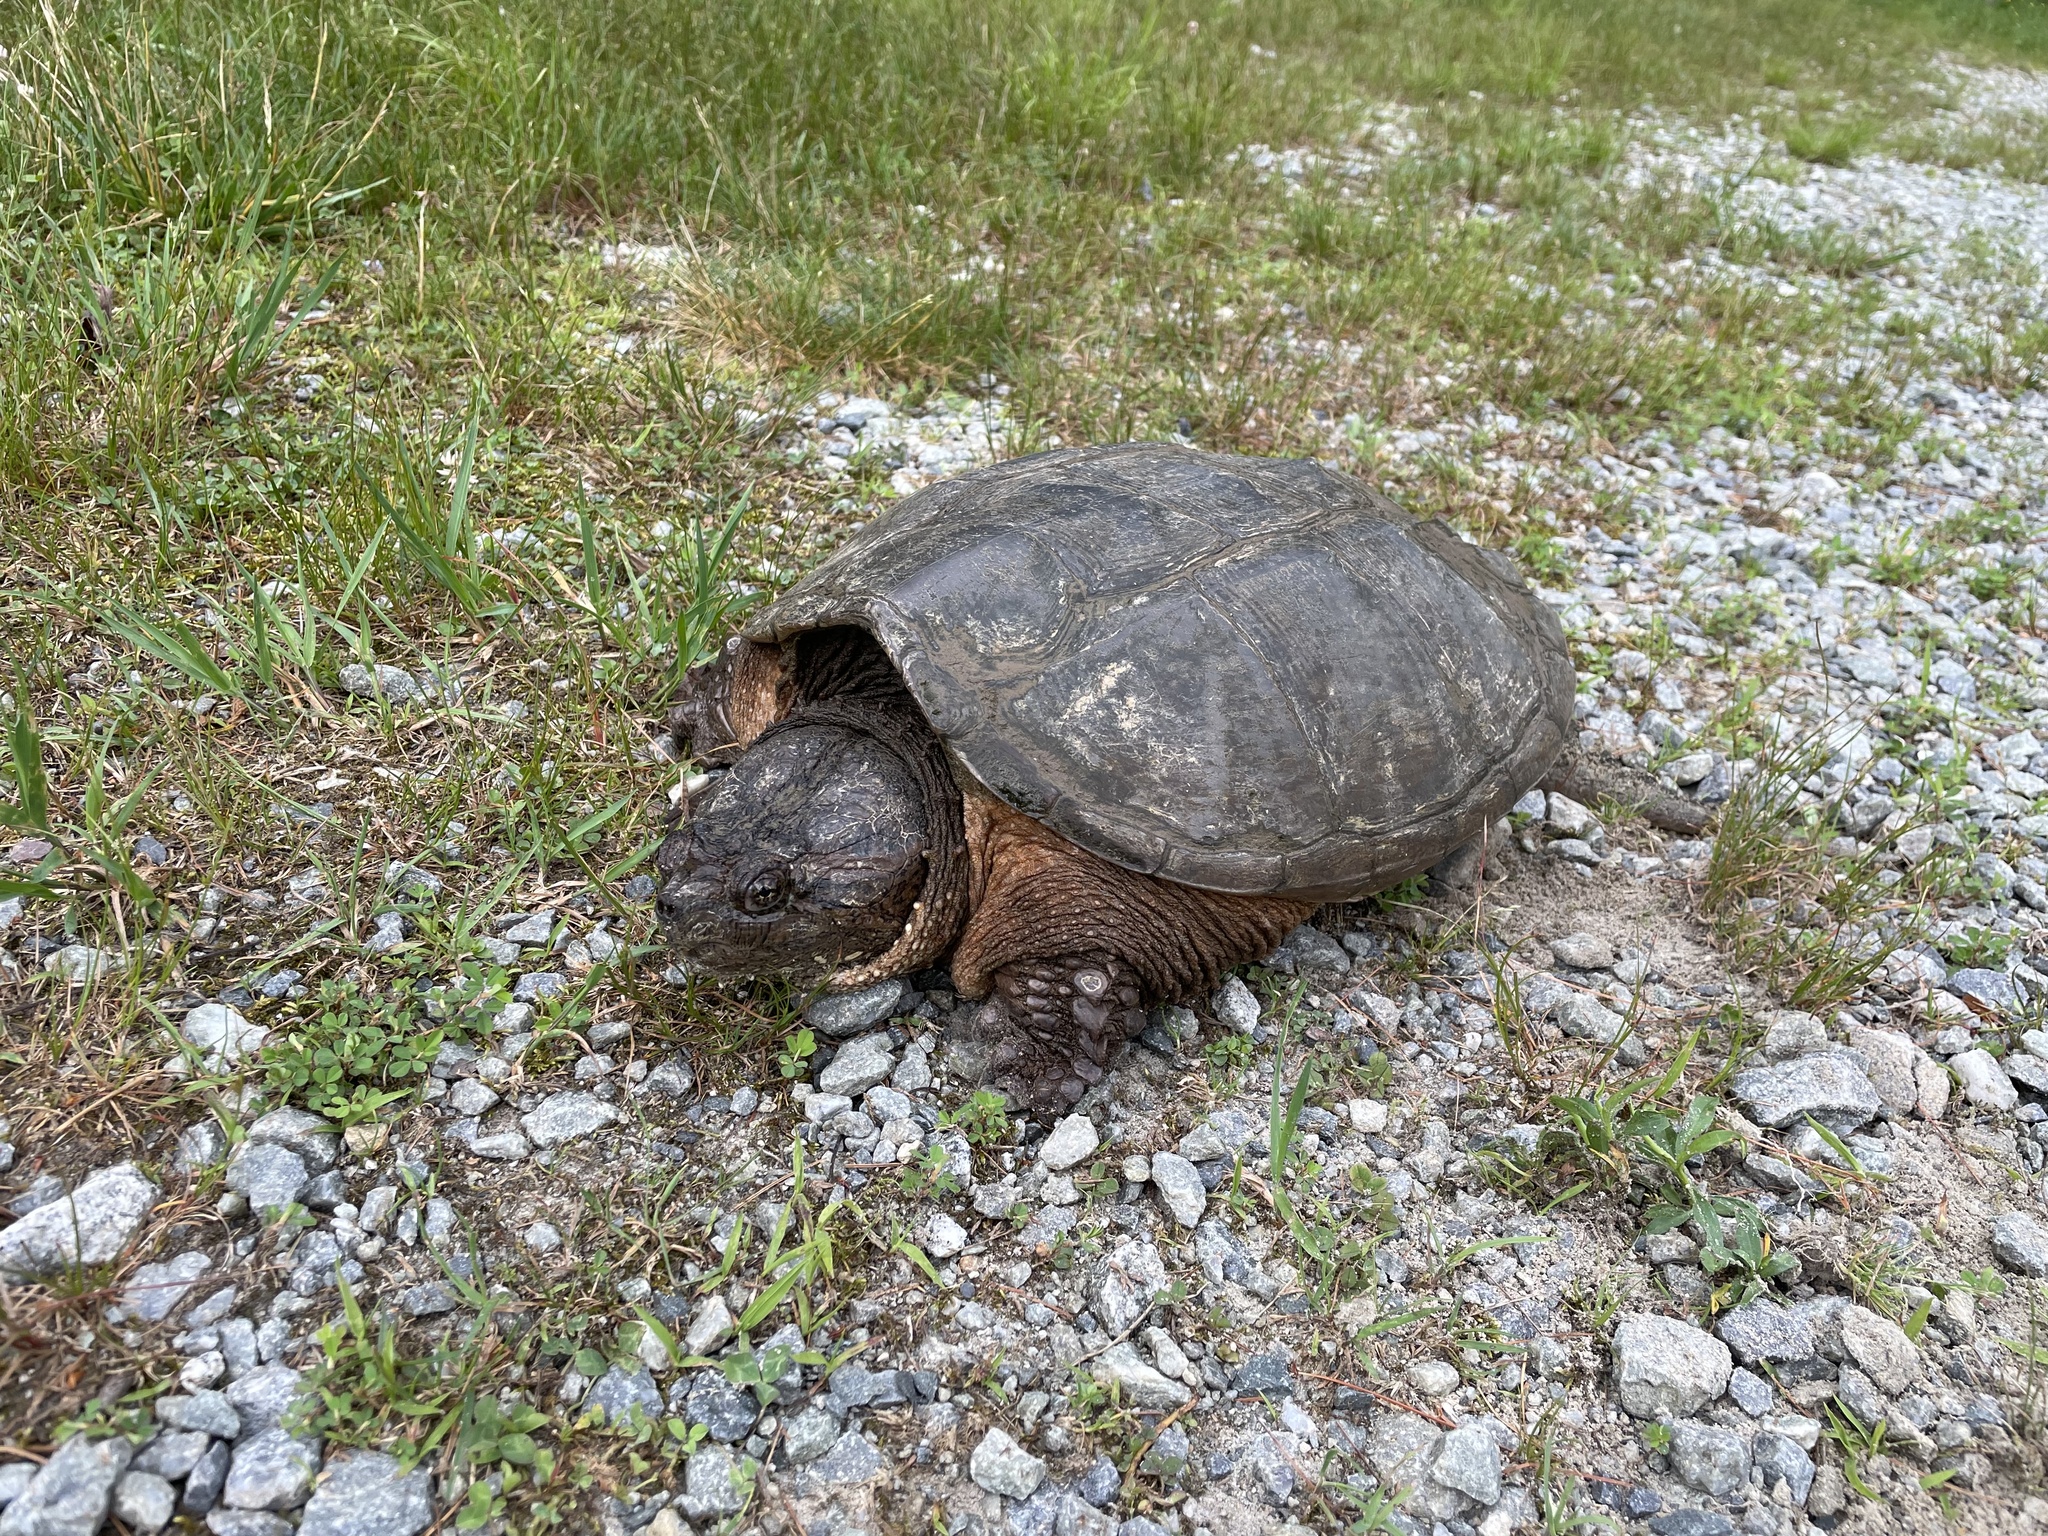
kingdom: Animalia
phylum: Chordata
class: Testudines
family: Chelydridae
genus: Chelydra
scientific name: Chelydra serpentina
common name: Common snapping turtle
